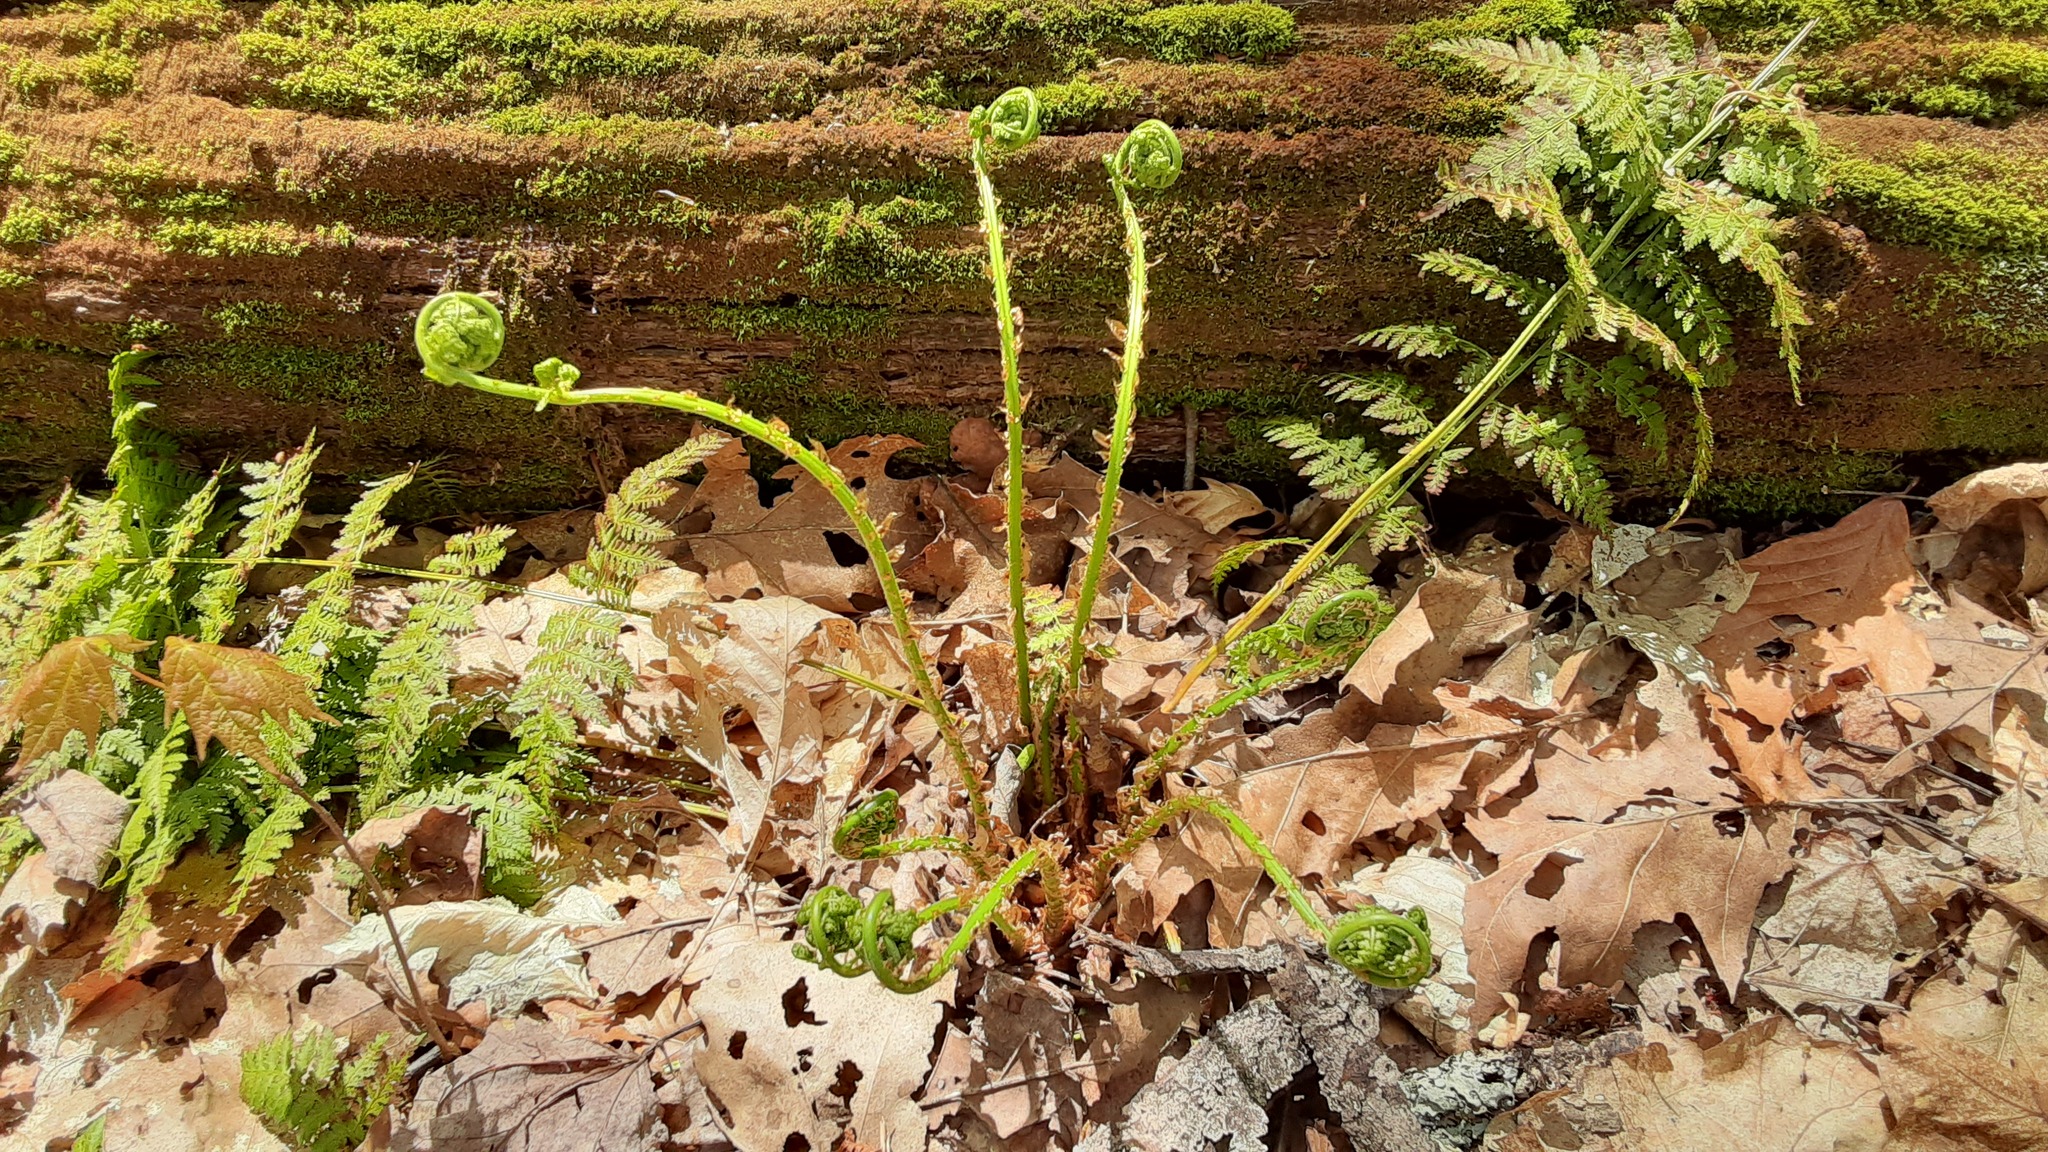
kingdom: Plantae
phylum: Tracheophyta
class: Polypodiopsida
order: Polypodiales
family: Dryopteridaceae
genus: Dryopteris
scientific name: Dryopteris intermedia
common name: Evergreen wood fern
